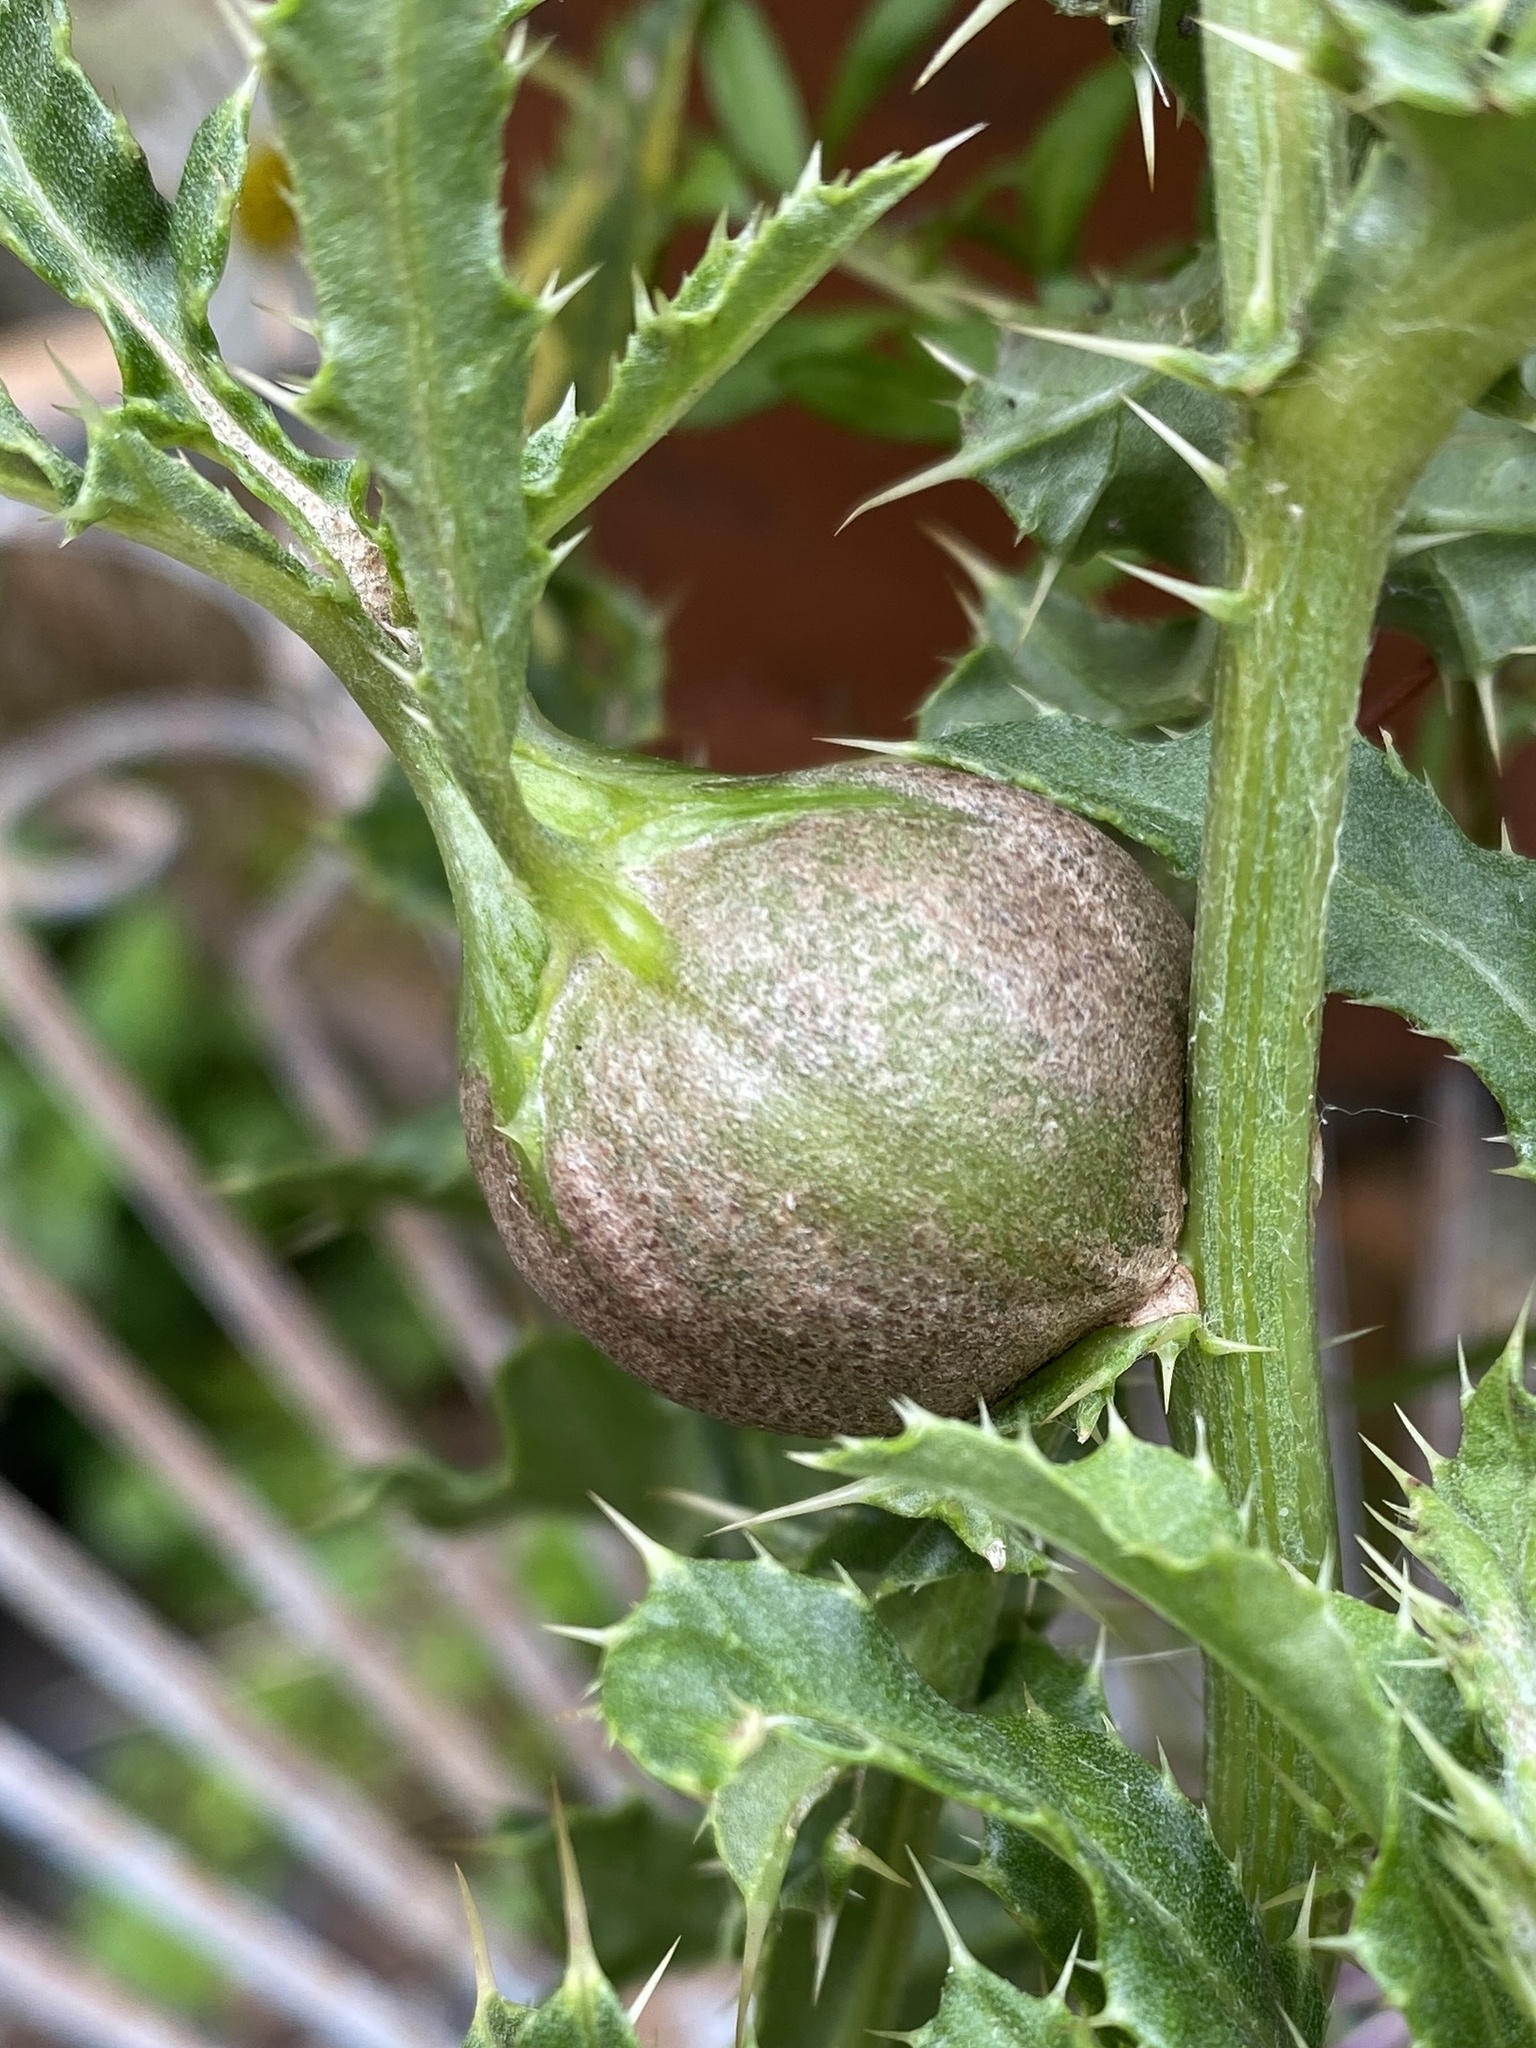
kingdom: Animalia
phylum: Arthropoda
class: Insecta
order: Diptera
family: Tephritidae
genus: Urophora
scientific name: Urophora cardui
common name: Fruit fly
